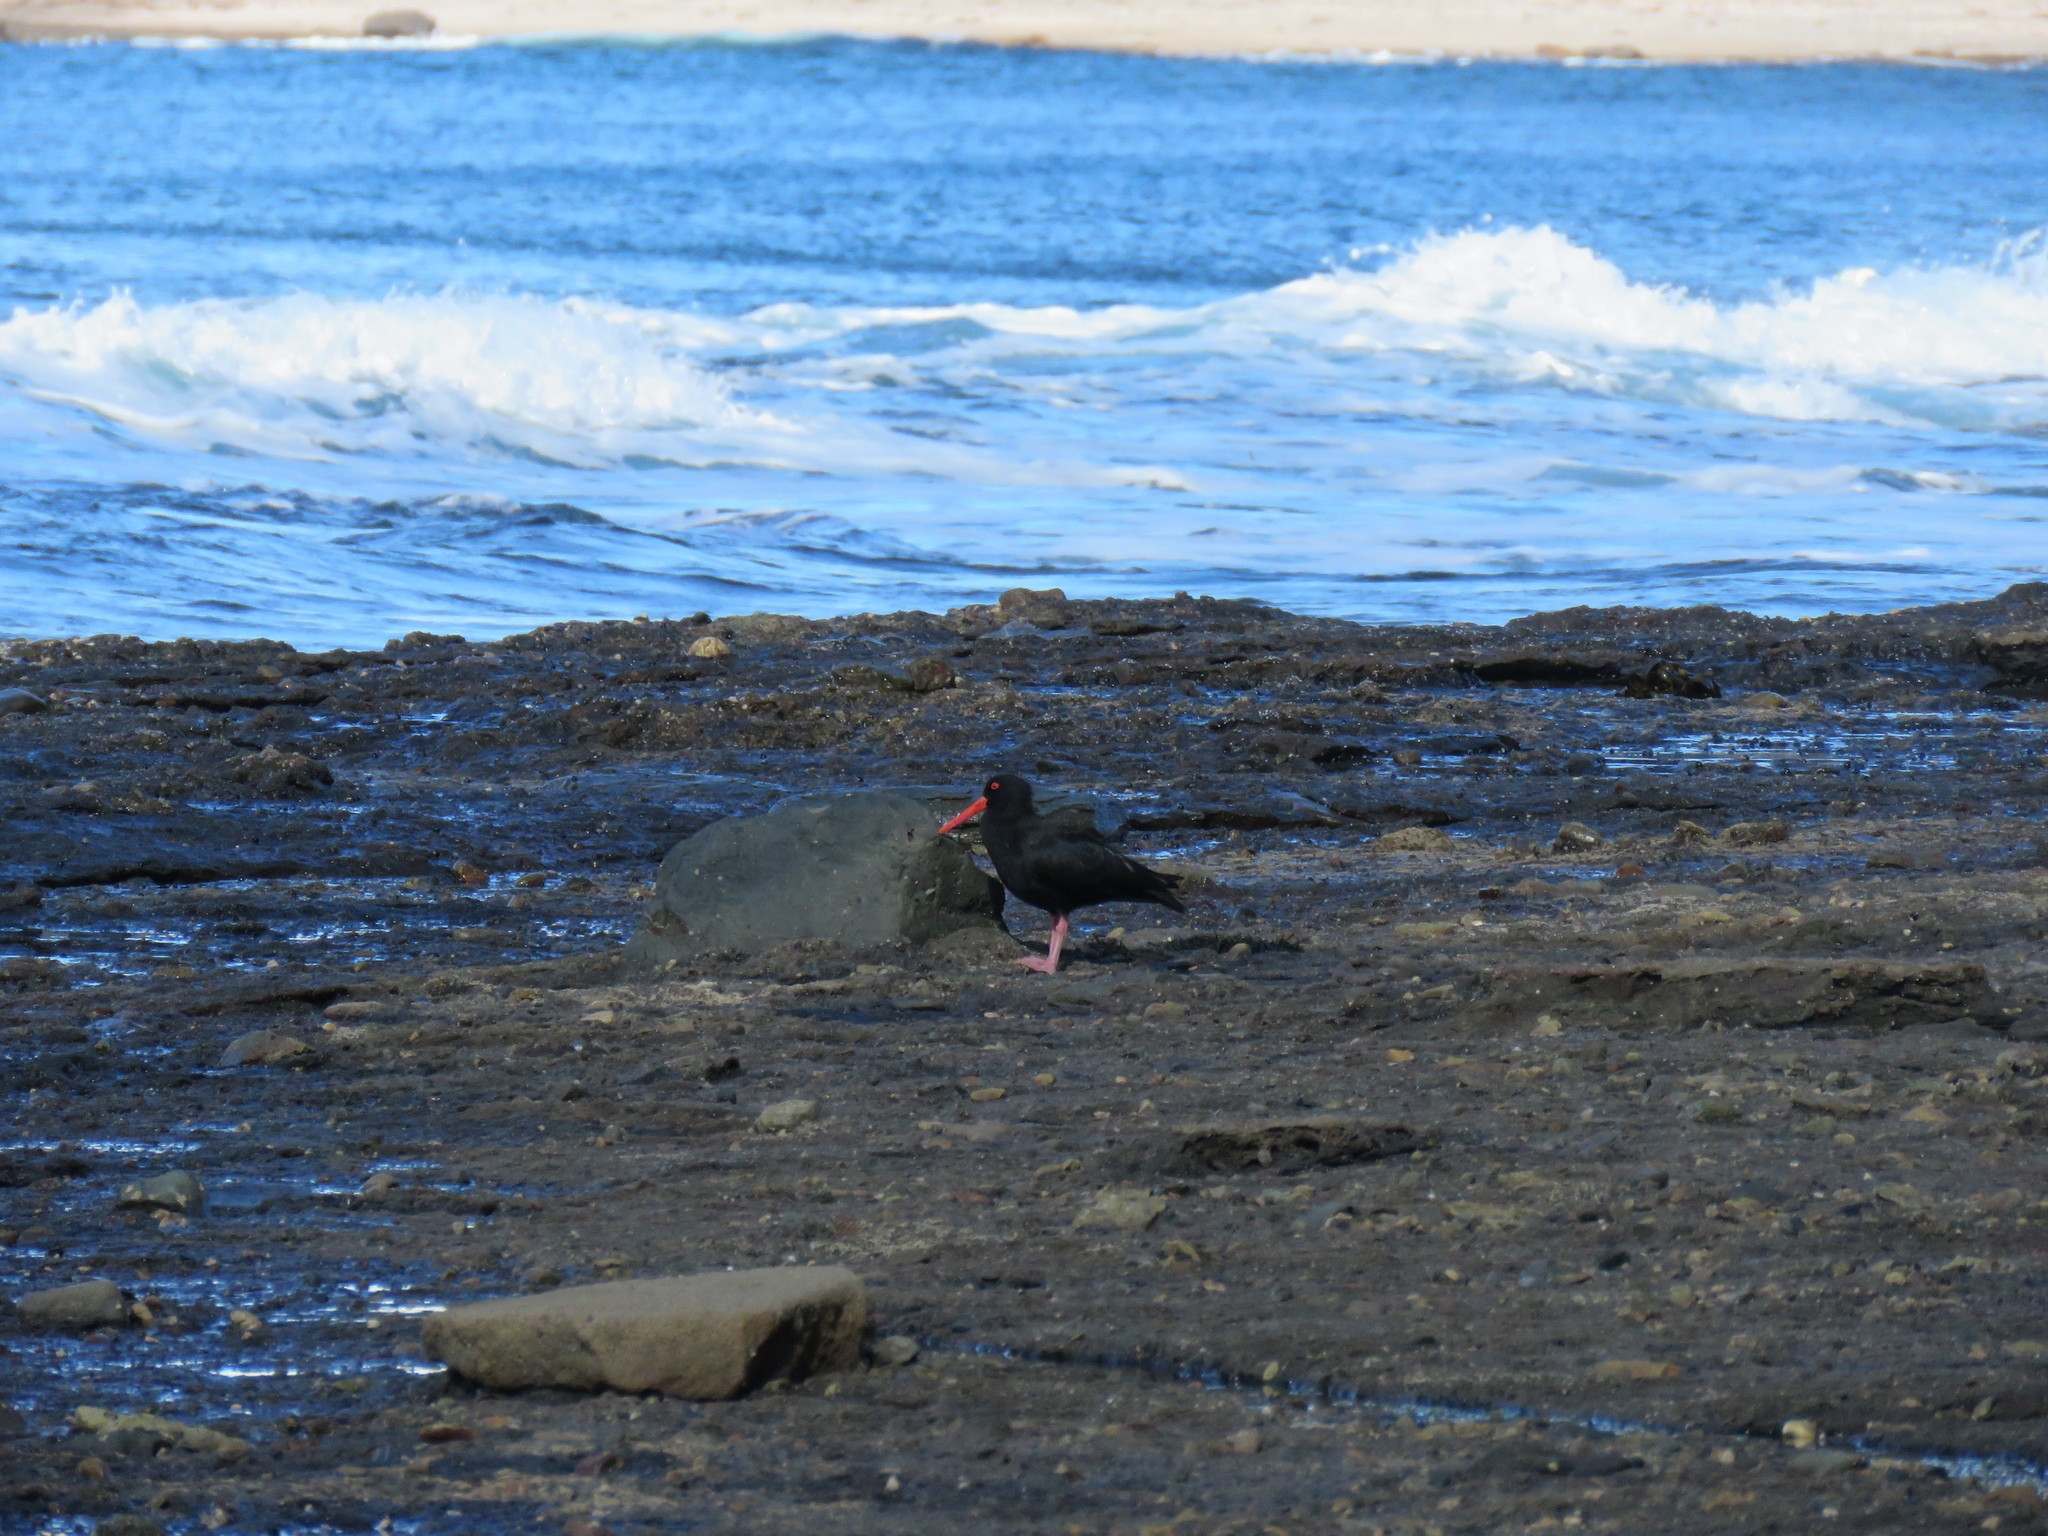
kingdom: Animalia
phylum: Chordata
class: Aves
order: Charadriiformes
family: Haematopodidae
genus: Haematopus
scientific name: Haematopus fuliginosus
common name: Sooty oystercatcher
